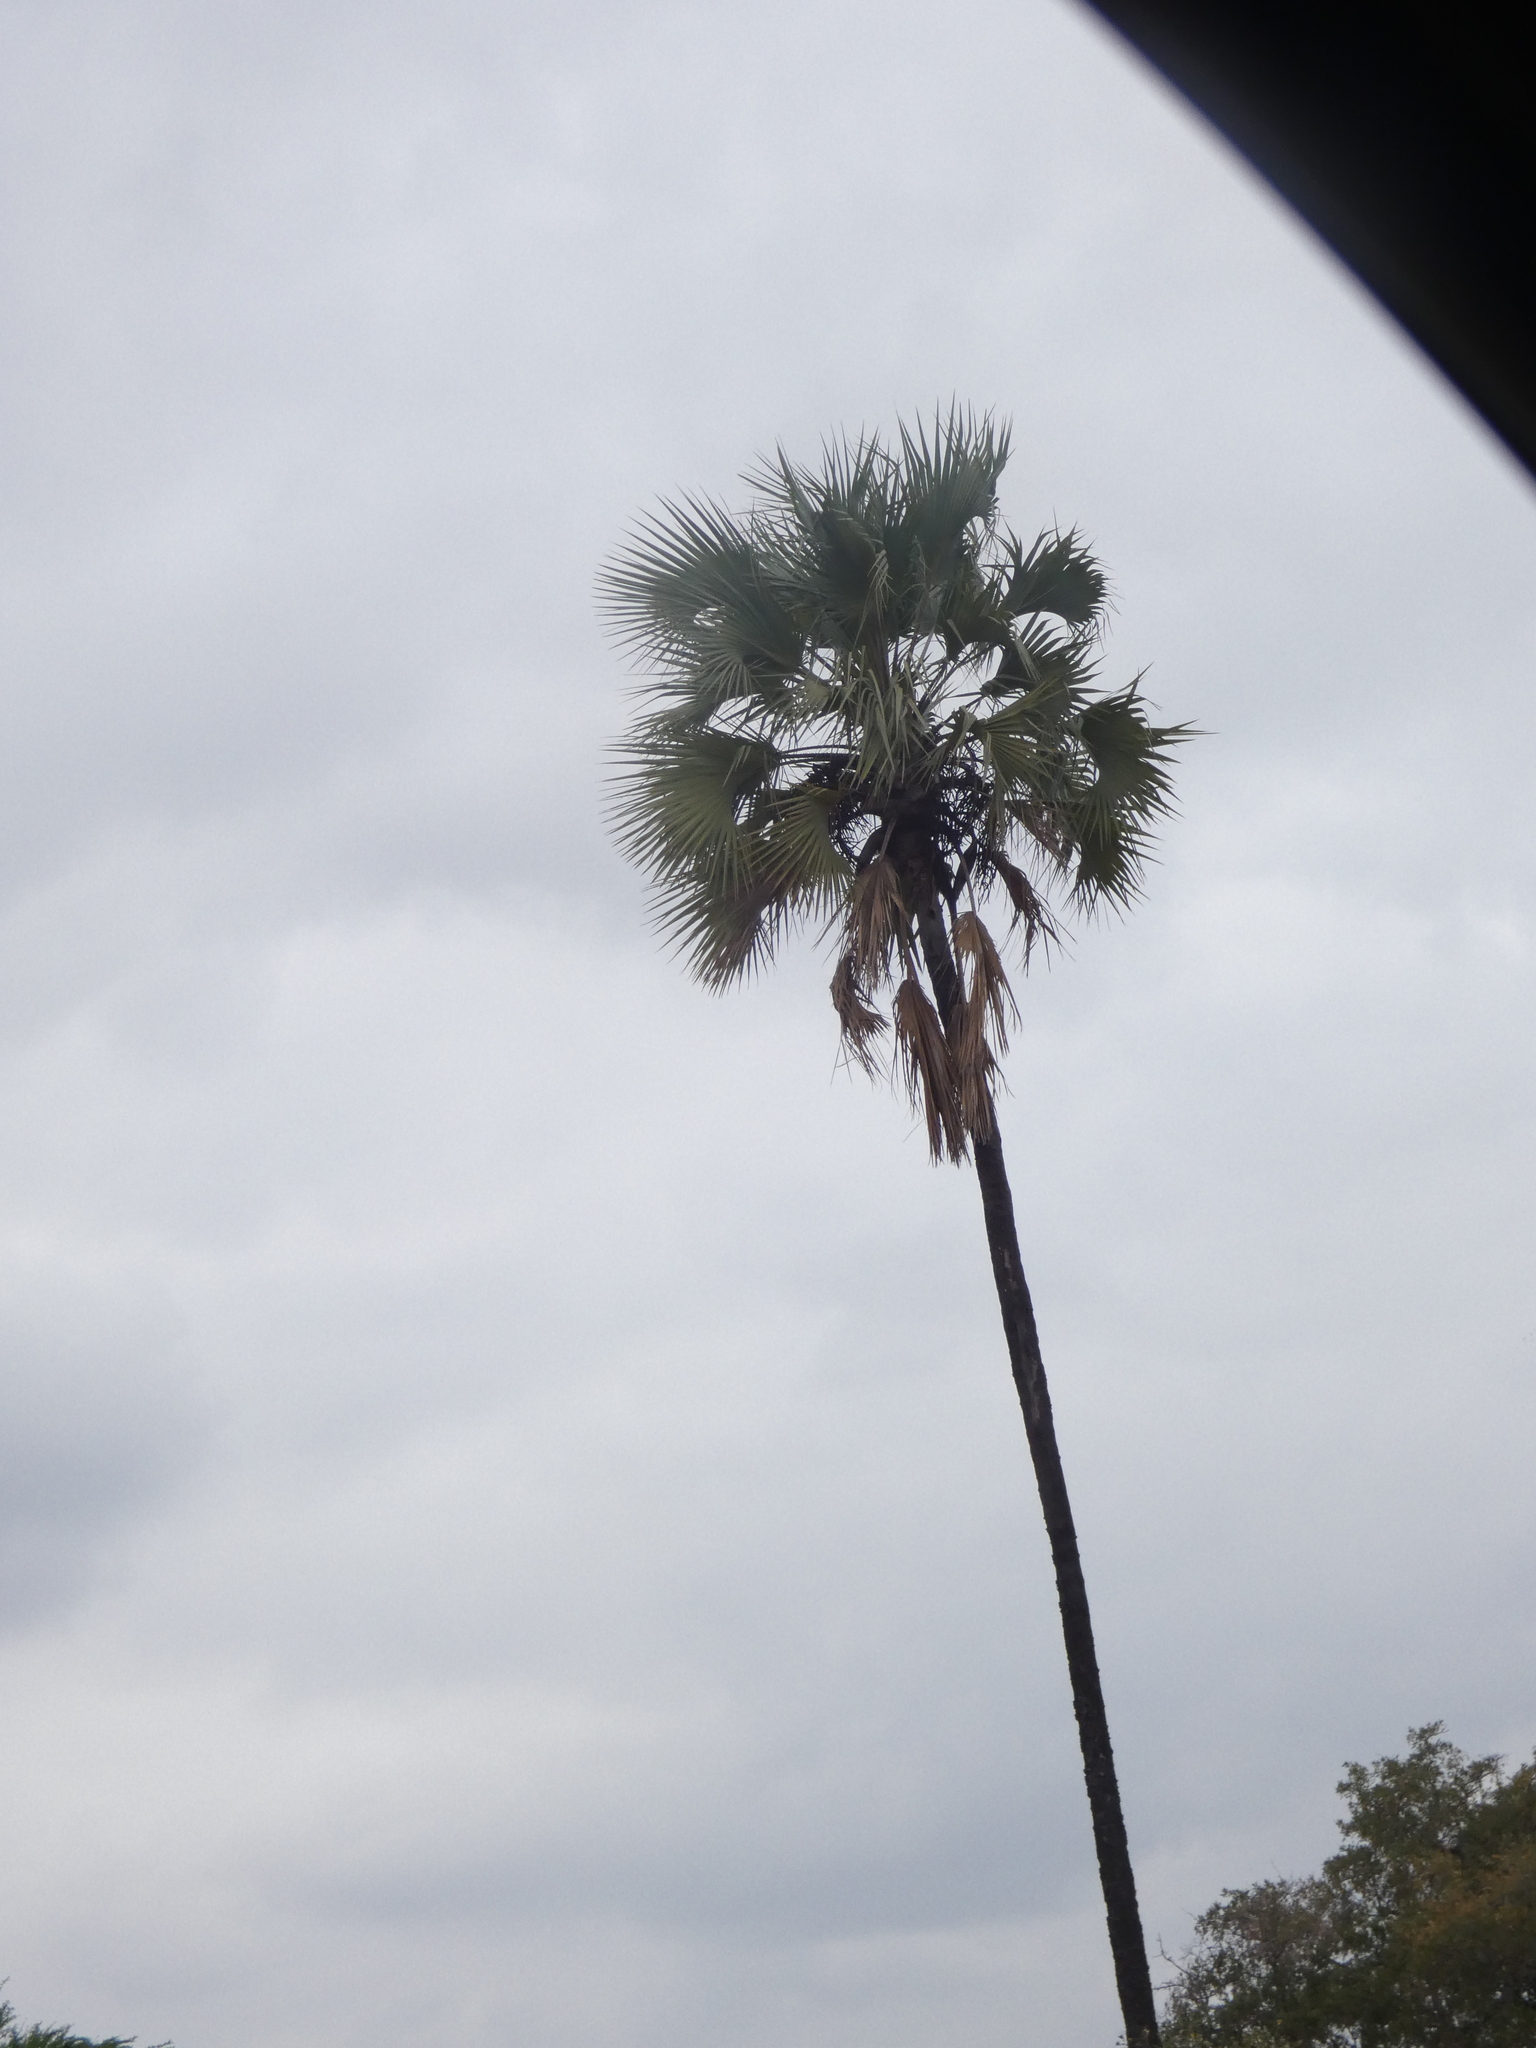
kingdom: Plantae
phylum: Tracheophyta
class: Liliopsida
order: Arecales
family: Arecaceae
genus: Hyphaene
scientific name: Hyphaene petersiana
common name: African ivory nut palm
